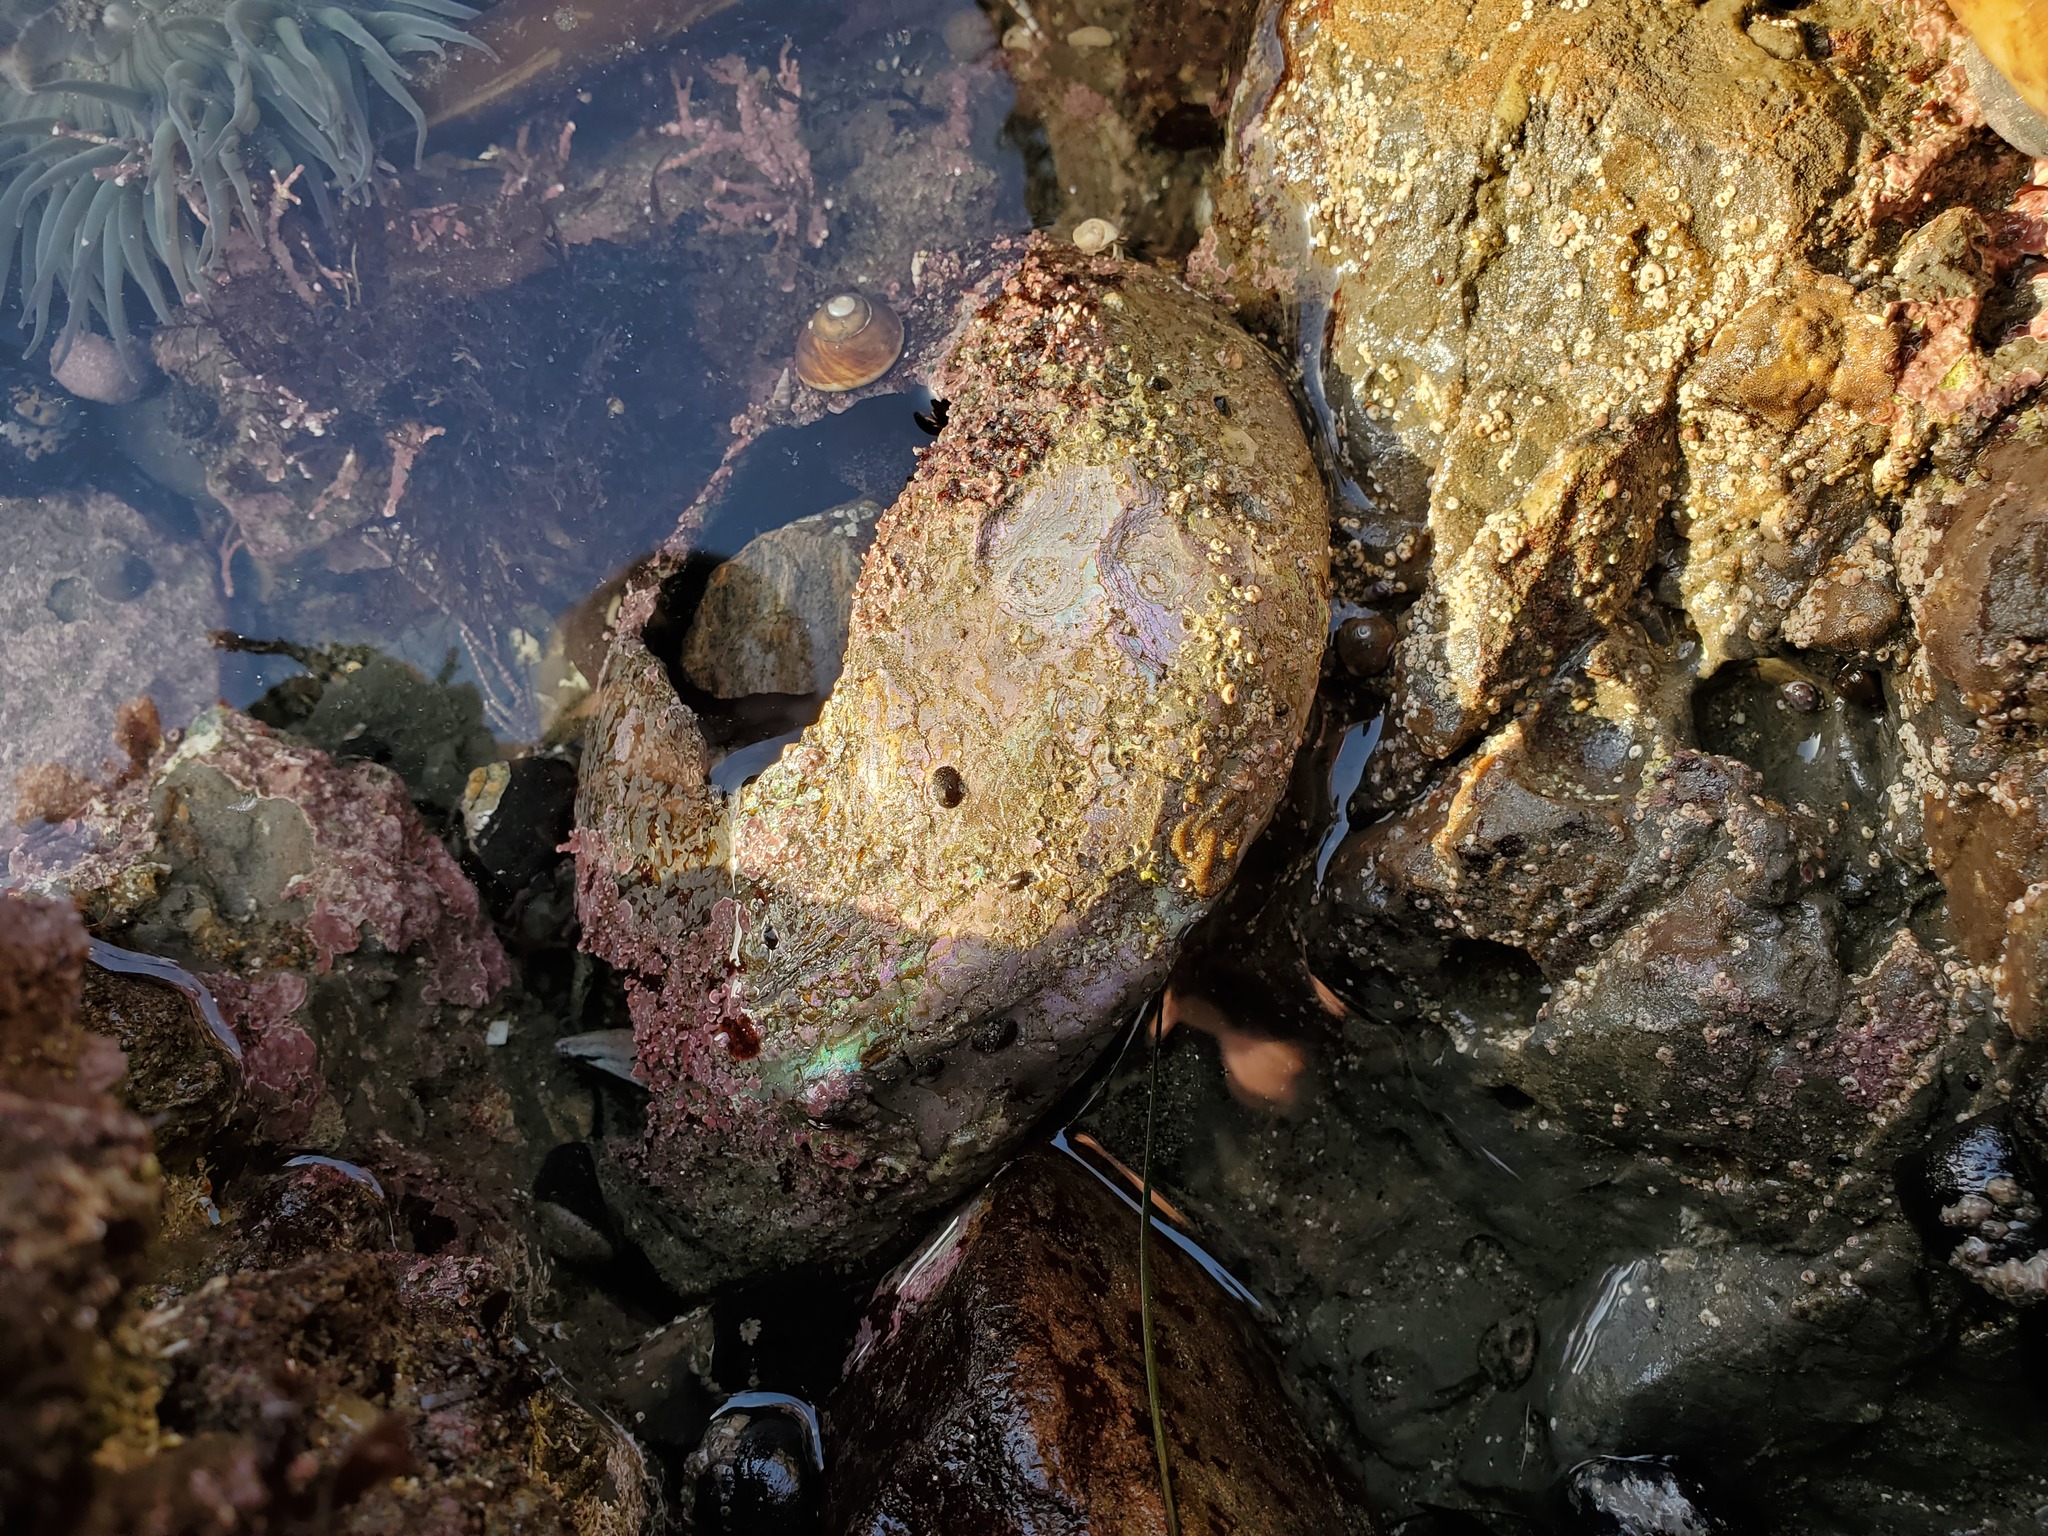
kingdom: Animalia
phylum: Mollusca
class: Gastropoda
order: Lepetellida
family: Haliotidae
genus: Haliotis
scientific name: Haliotis rufescens
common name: Red abalone
